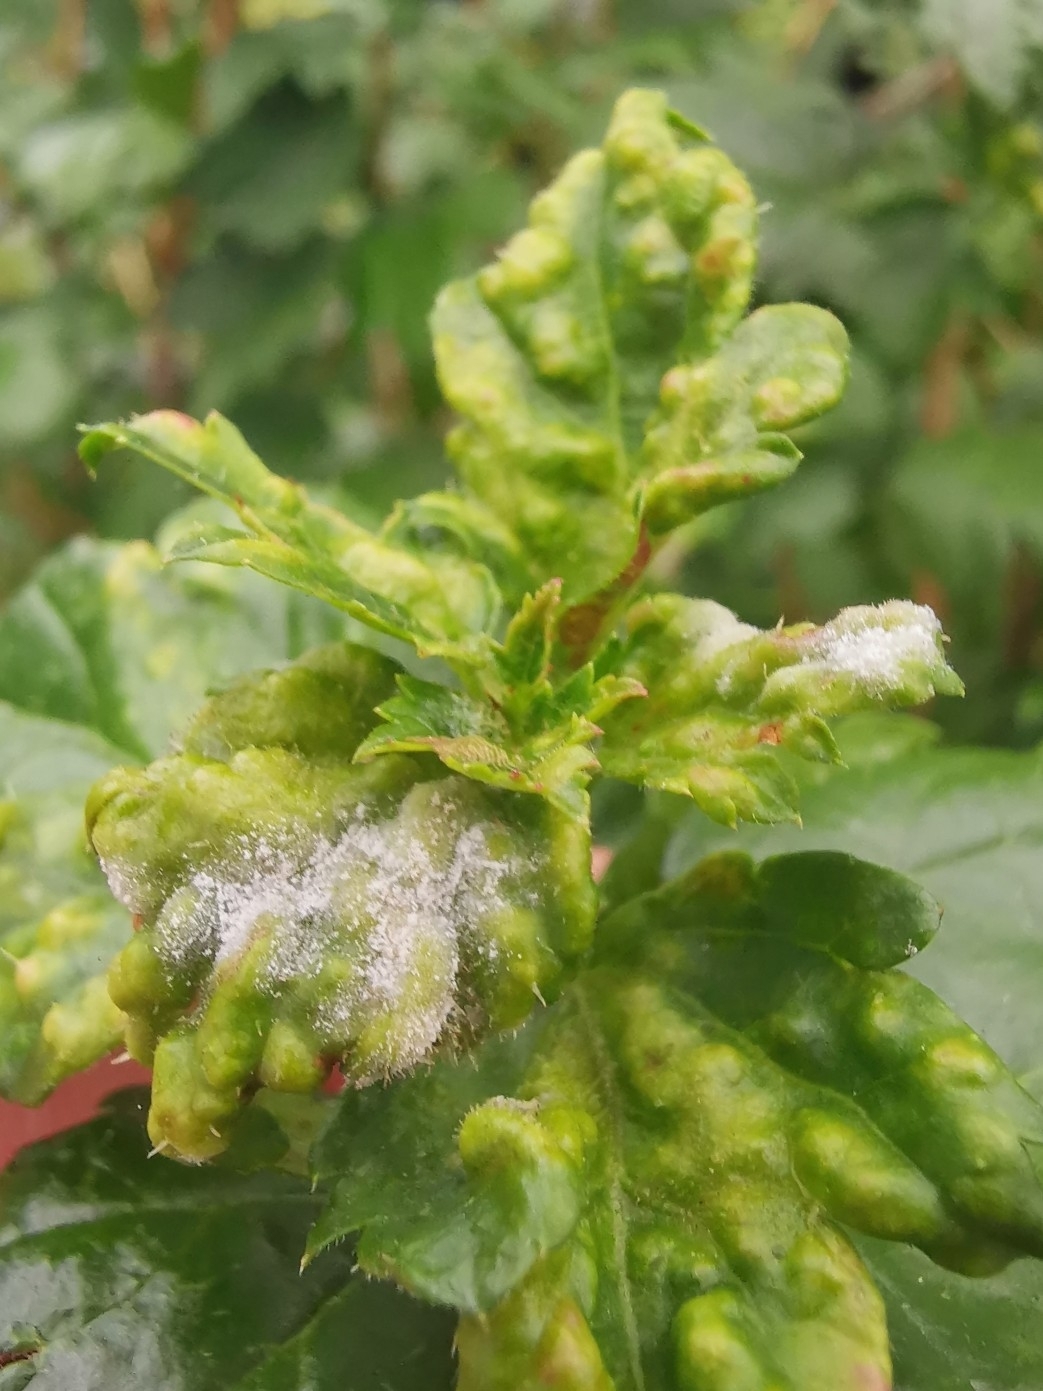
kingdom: Fungi
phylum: Ascomycota
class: Leotiomycetes
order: Helotiales
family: Erysiphaceae
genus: Podosphaera
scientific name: Podosphaera mors-uvae
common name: American gooseberry mildew
